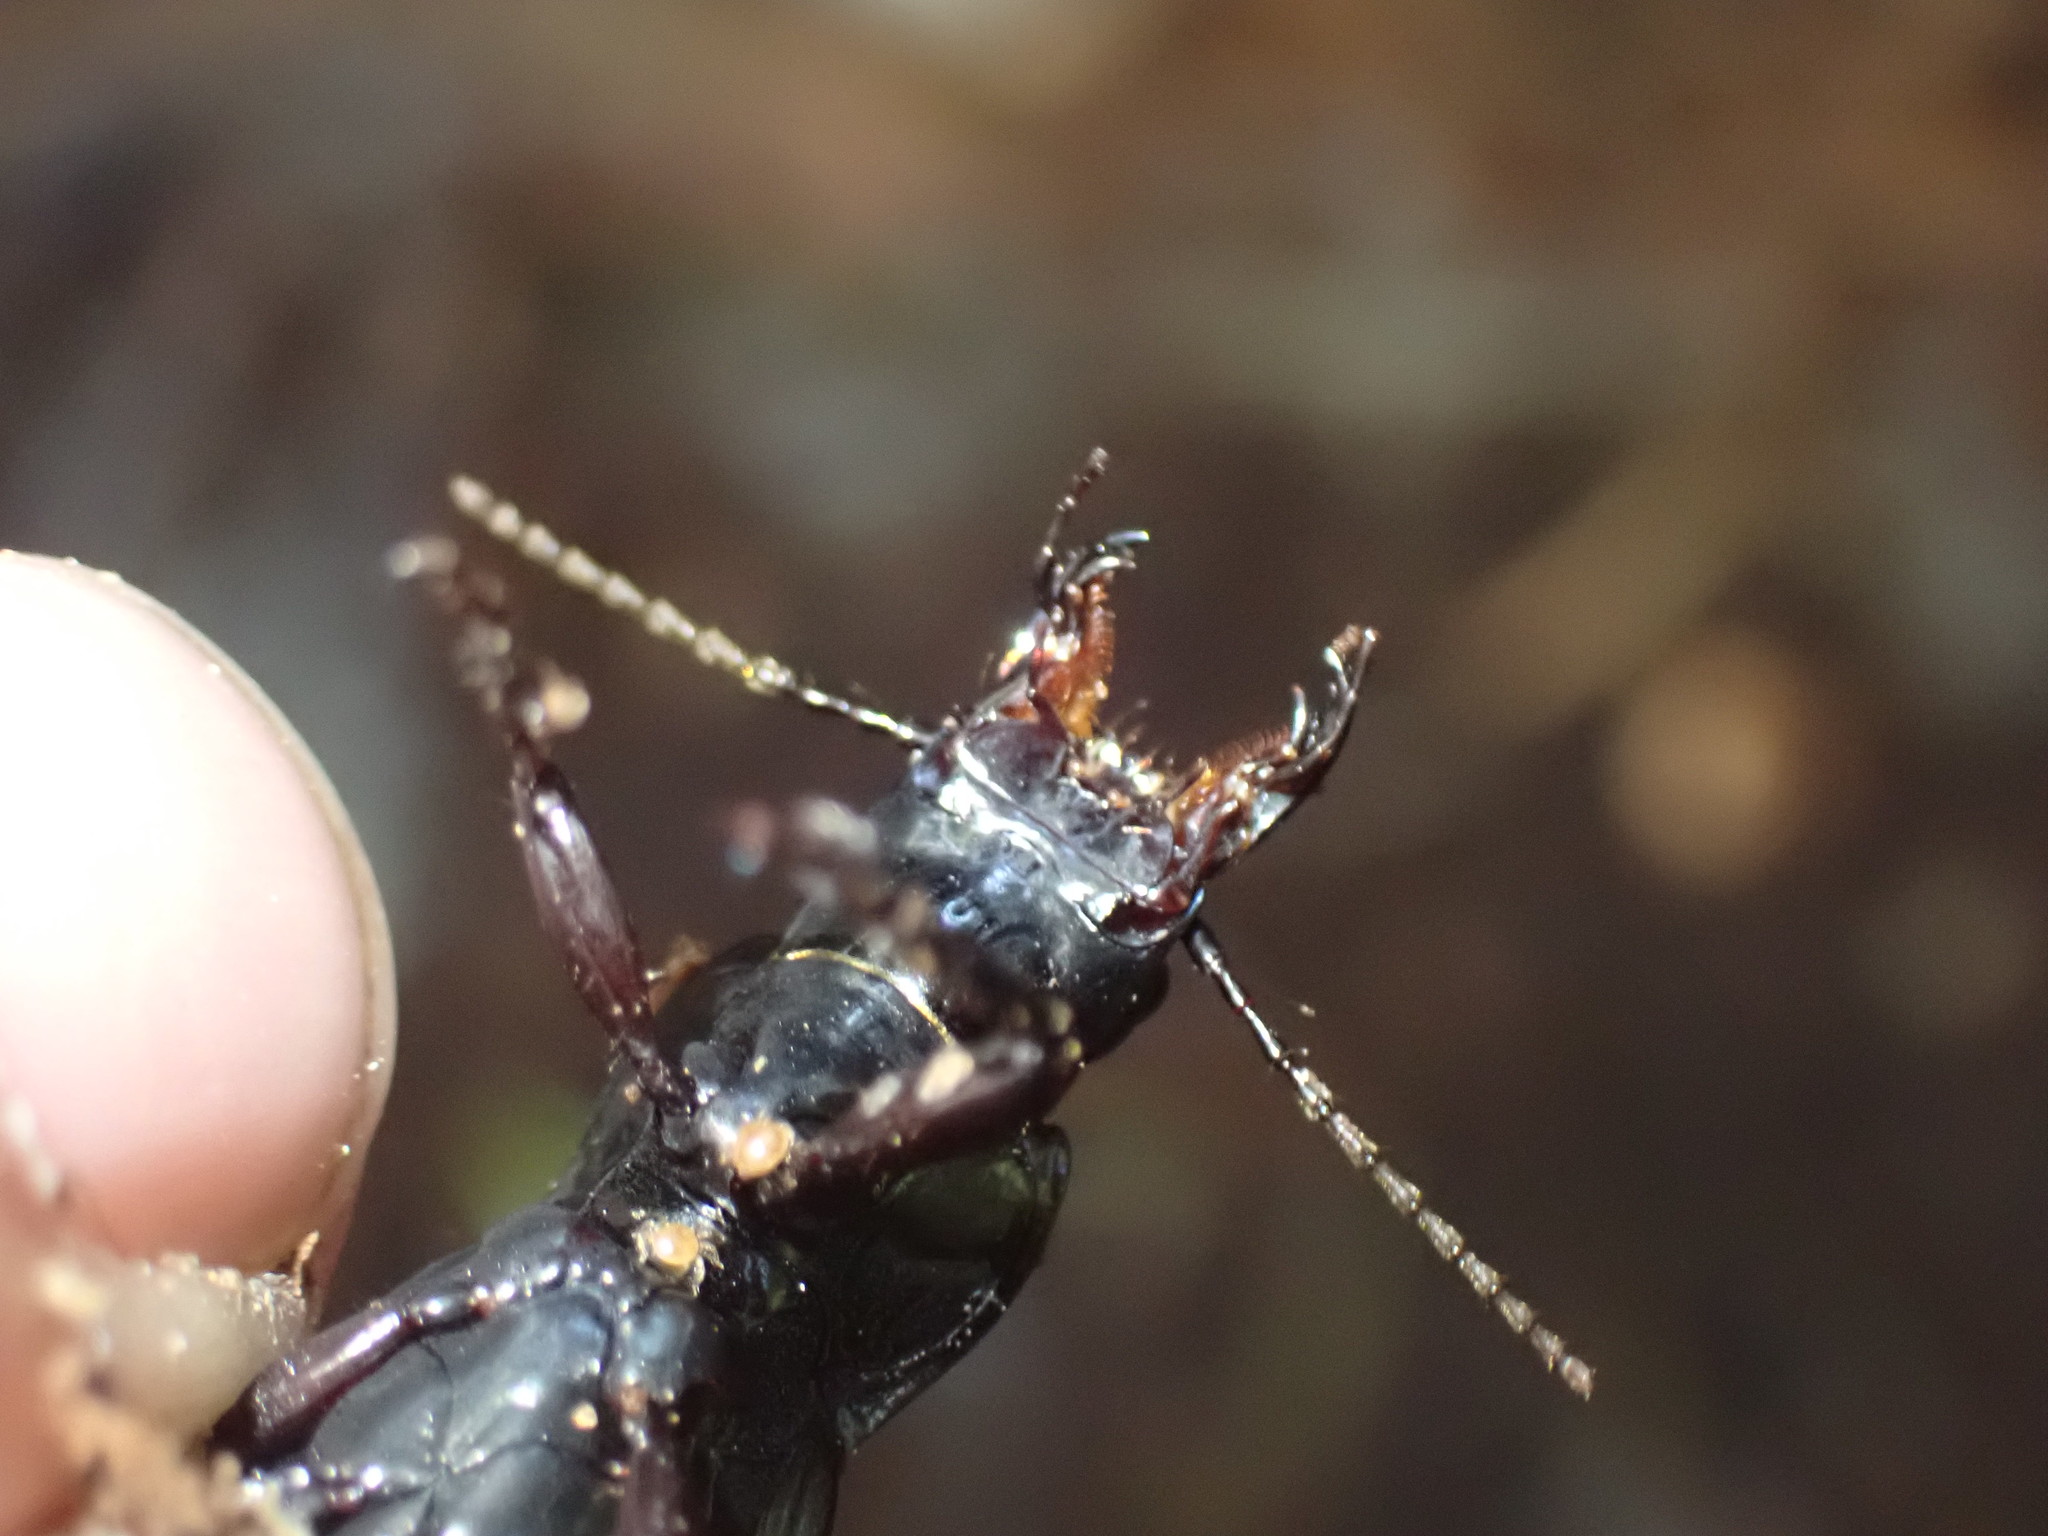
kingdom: Animalia
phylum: Arthropoda
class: Insecta
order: Coleoptera
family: Carabidae
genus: Plocamostethus
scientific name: Plocamostethus planiusculus
